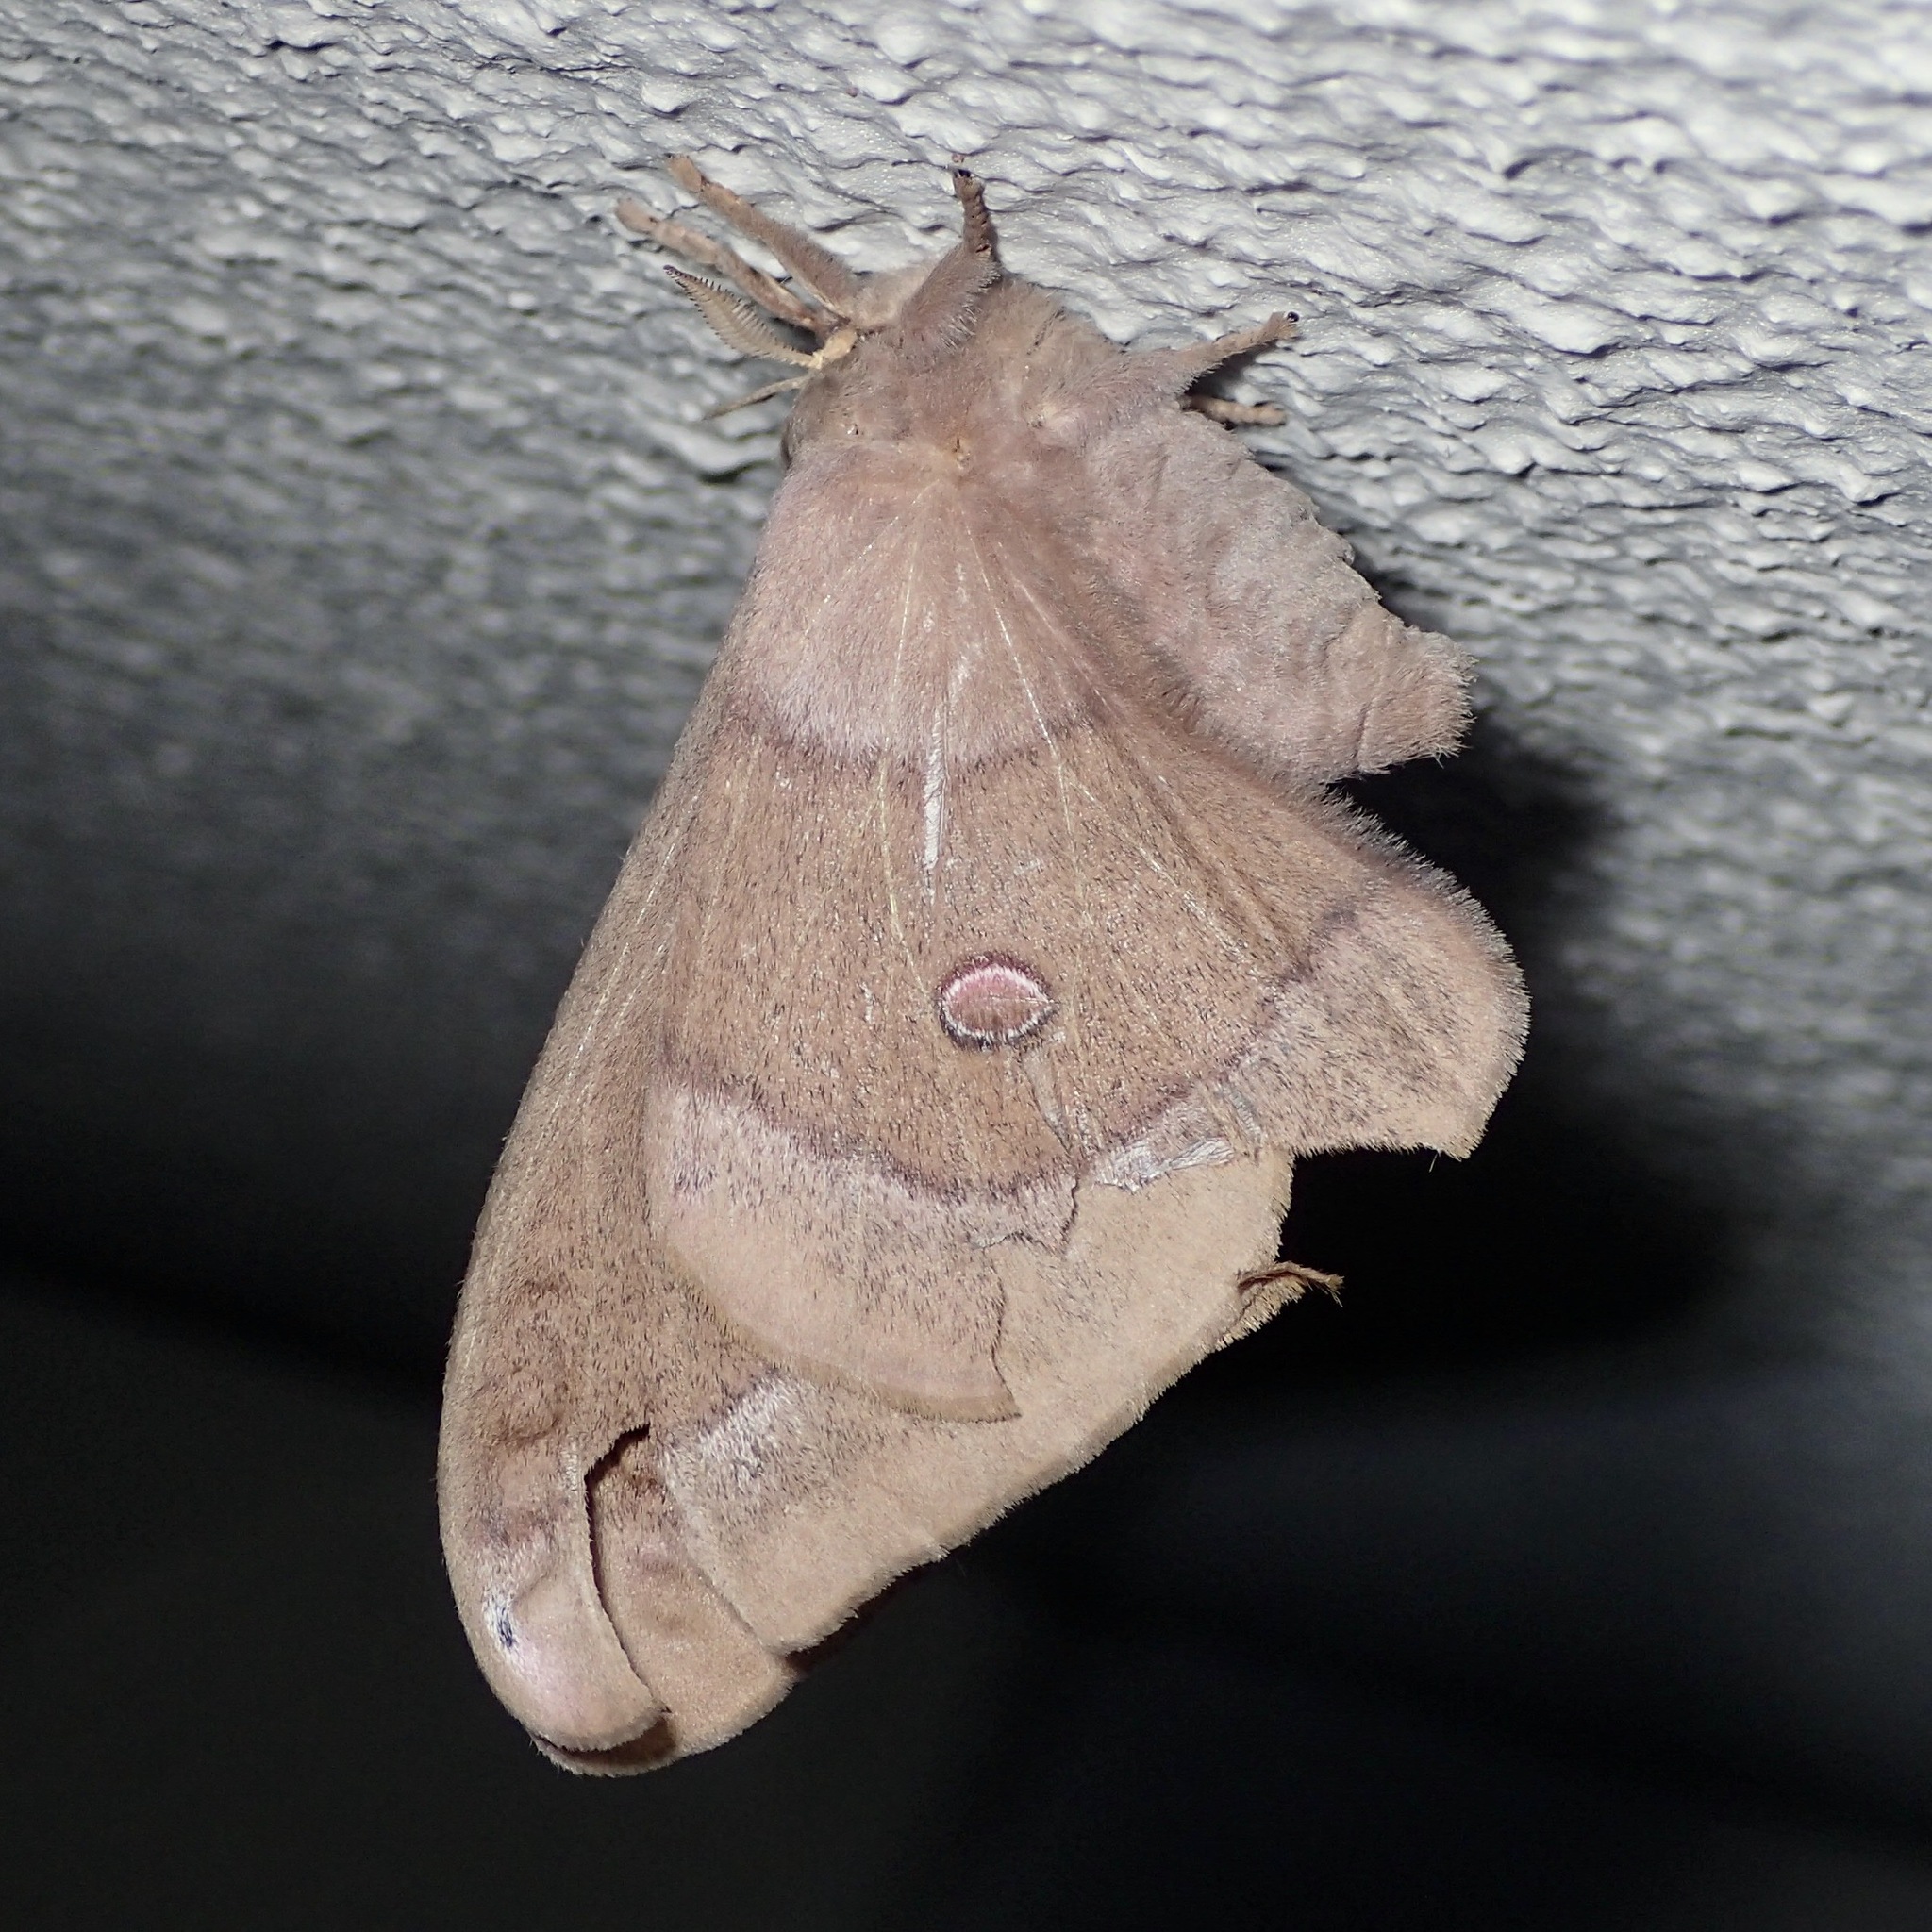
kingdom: Animalia
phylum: Arthropoda
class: Insecta
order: Lepidoptera
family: Saturniidae
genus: Opodiphthera
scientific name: Opodiphthera
